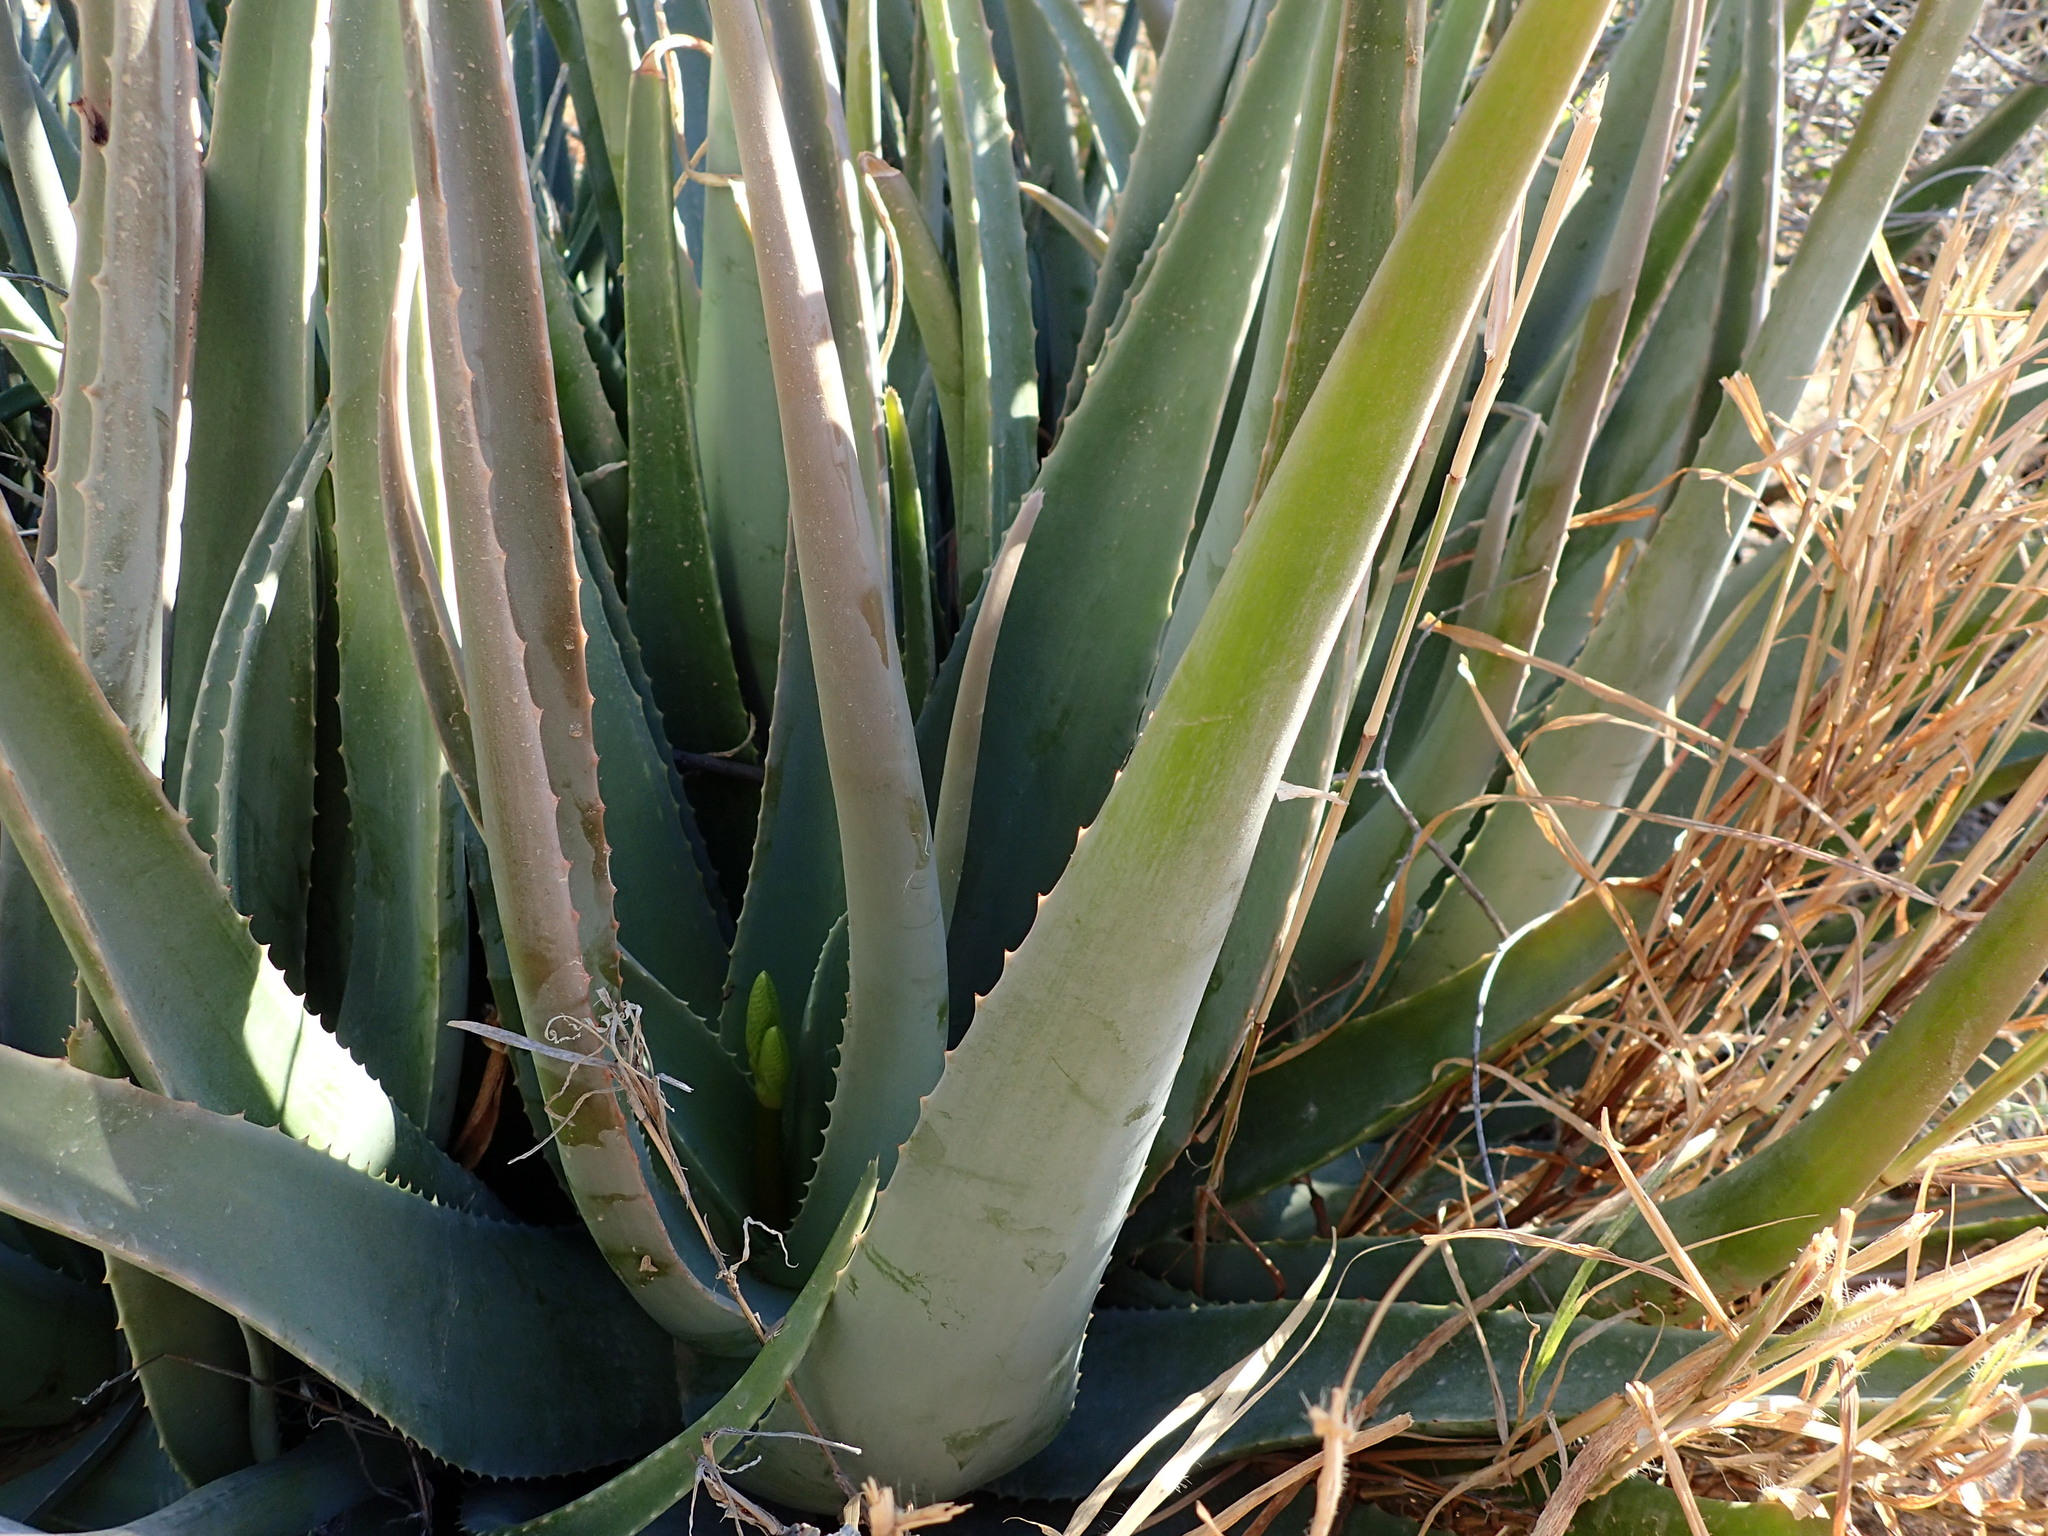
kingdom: Plantae
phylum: Tracheophyta
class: Liliopsida
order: Asparagales
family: Asphodelaceae
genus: Aloe
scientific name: Aloe vera
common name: Barbados aloe
